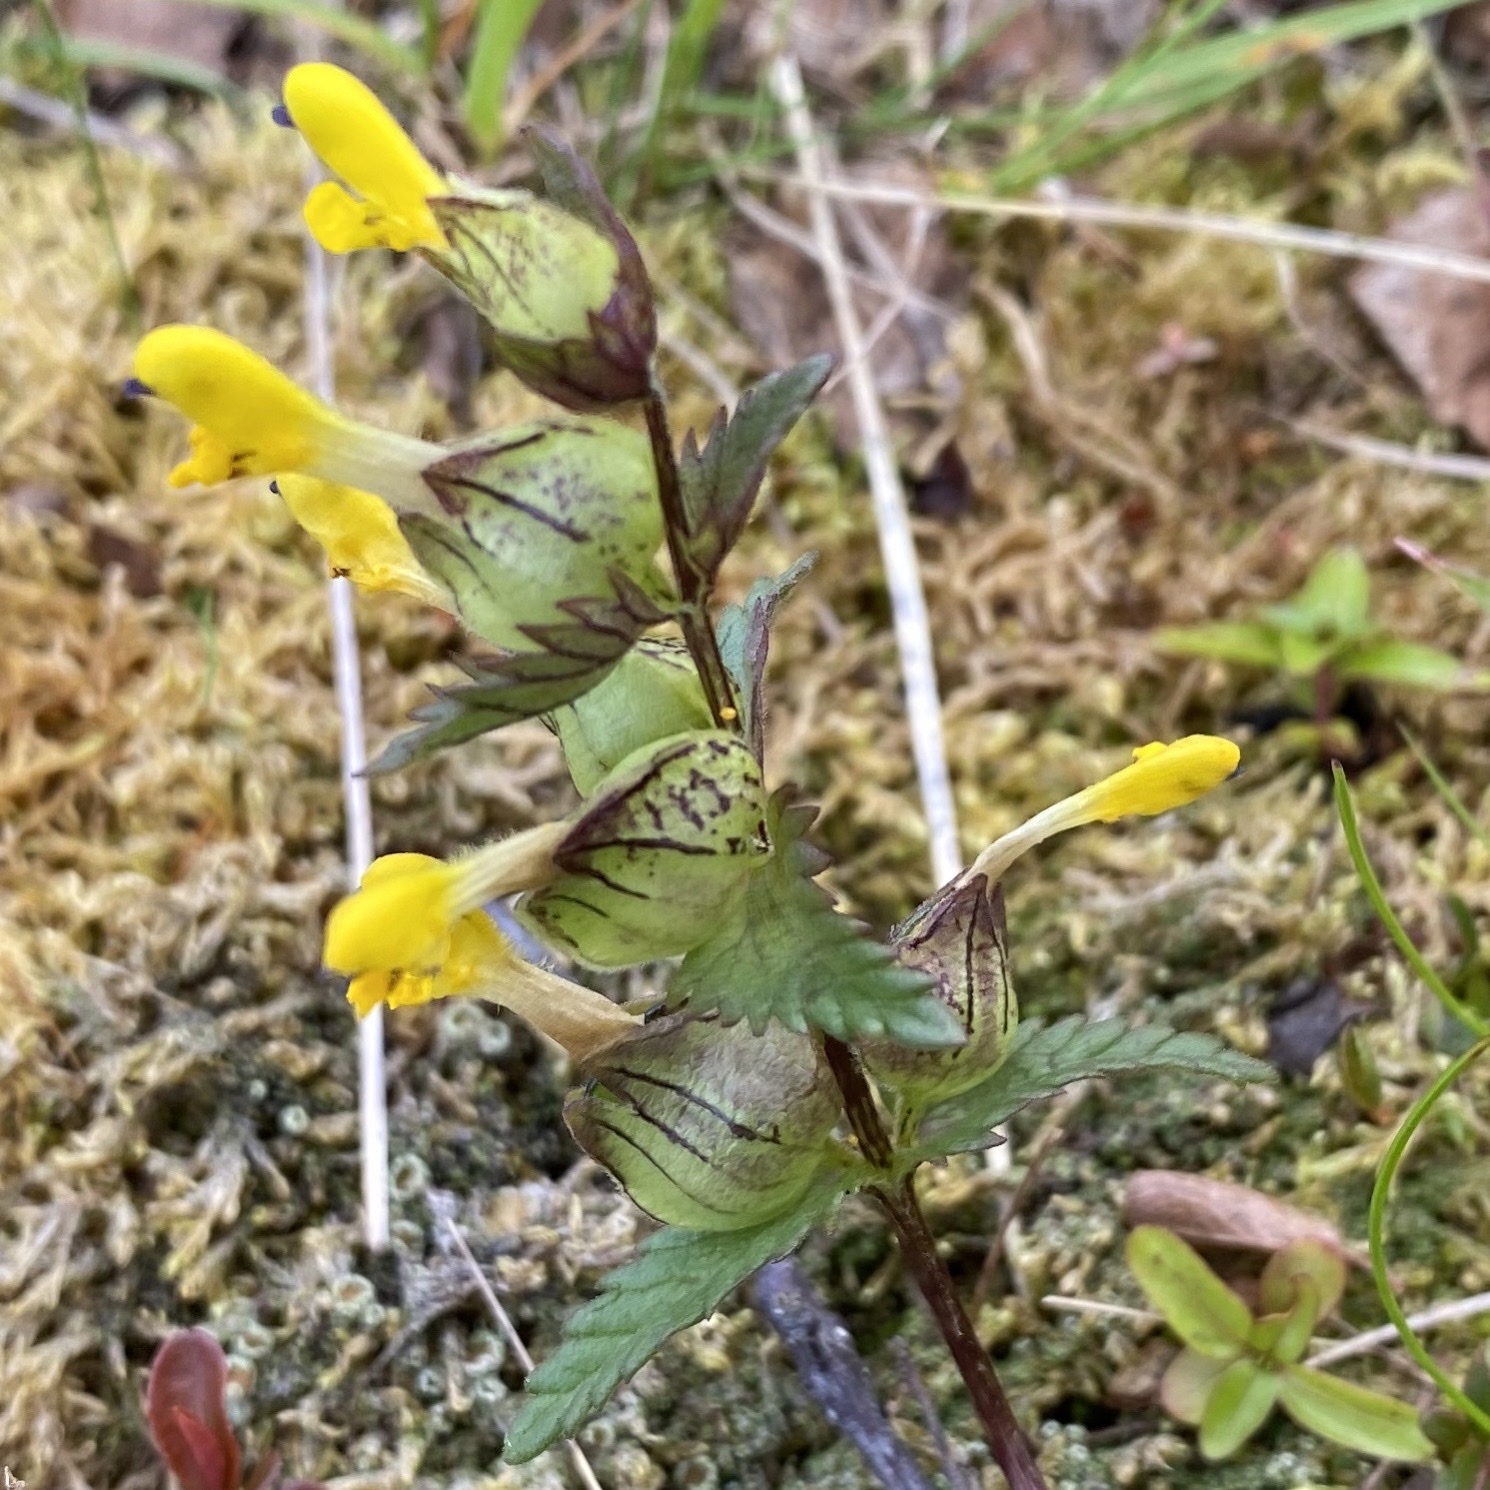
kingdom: Plantae
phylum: Tracheophyta
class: Magnoliopsida
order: Lamiales
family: Orobanchaceae
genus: Rhinanthus
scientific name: Rhinanthus minor
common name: Yellow-rattle
